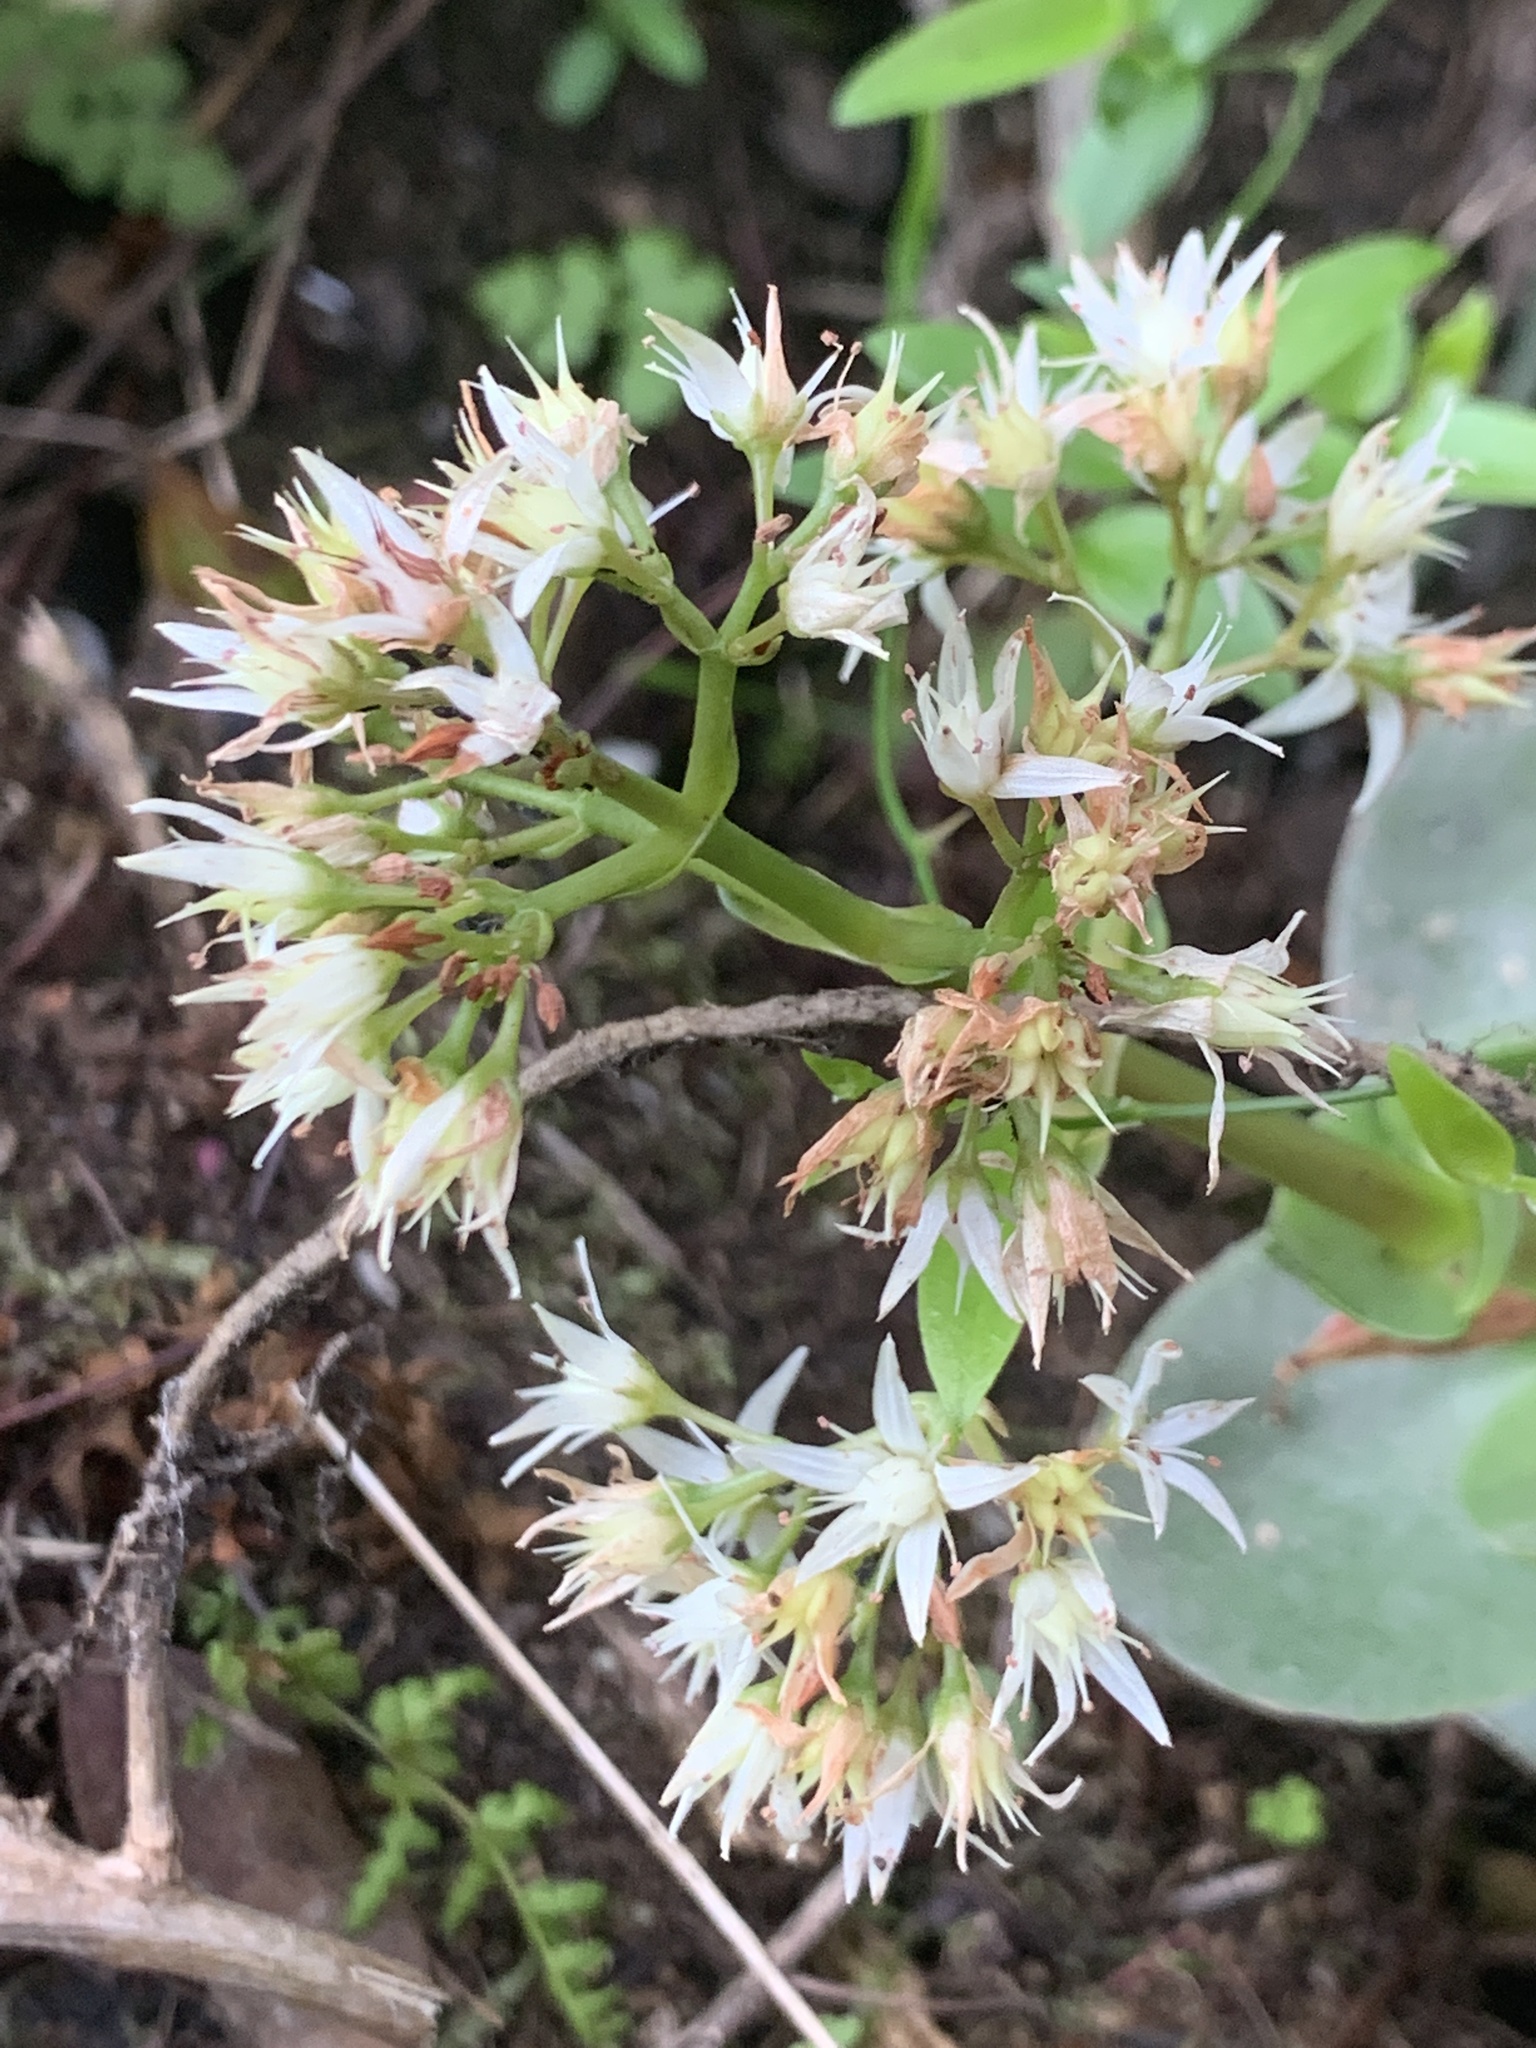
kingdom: Plantae
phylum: Tracheophyta
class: Magnoliopsida
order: Saxifragales
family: Crassulaceae
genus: Crassula
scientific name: Crassula lactea
